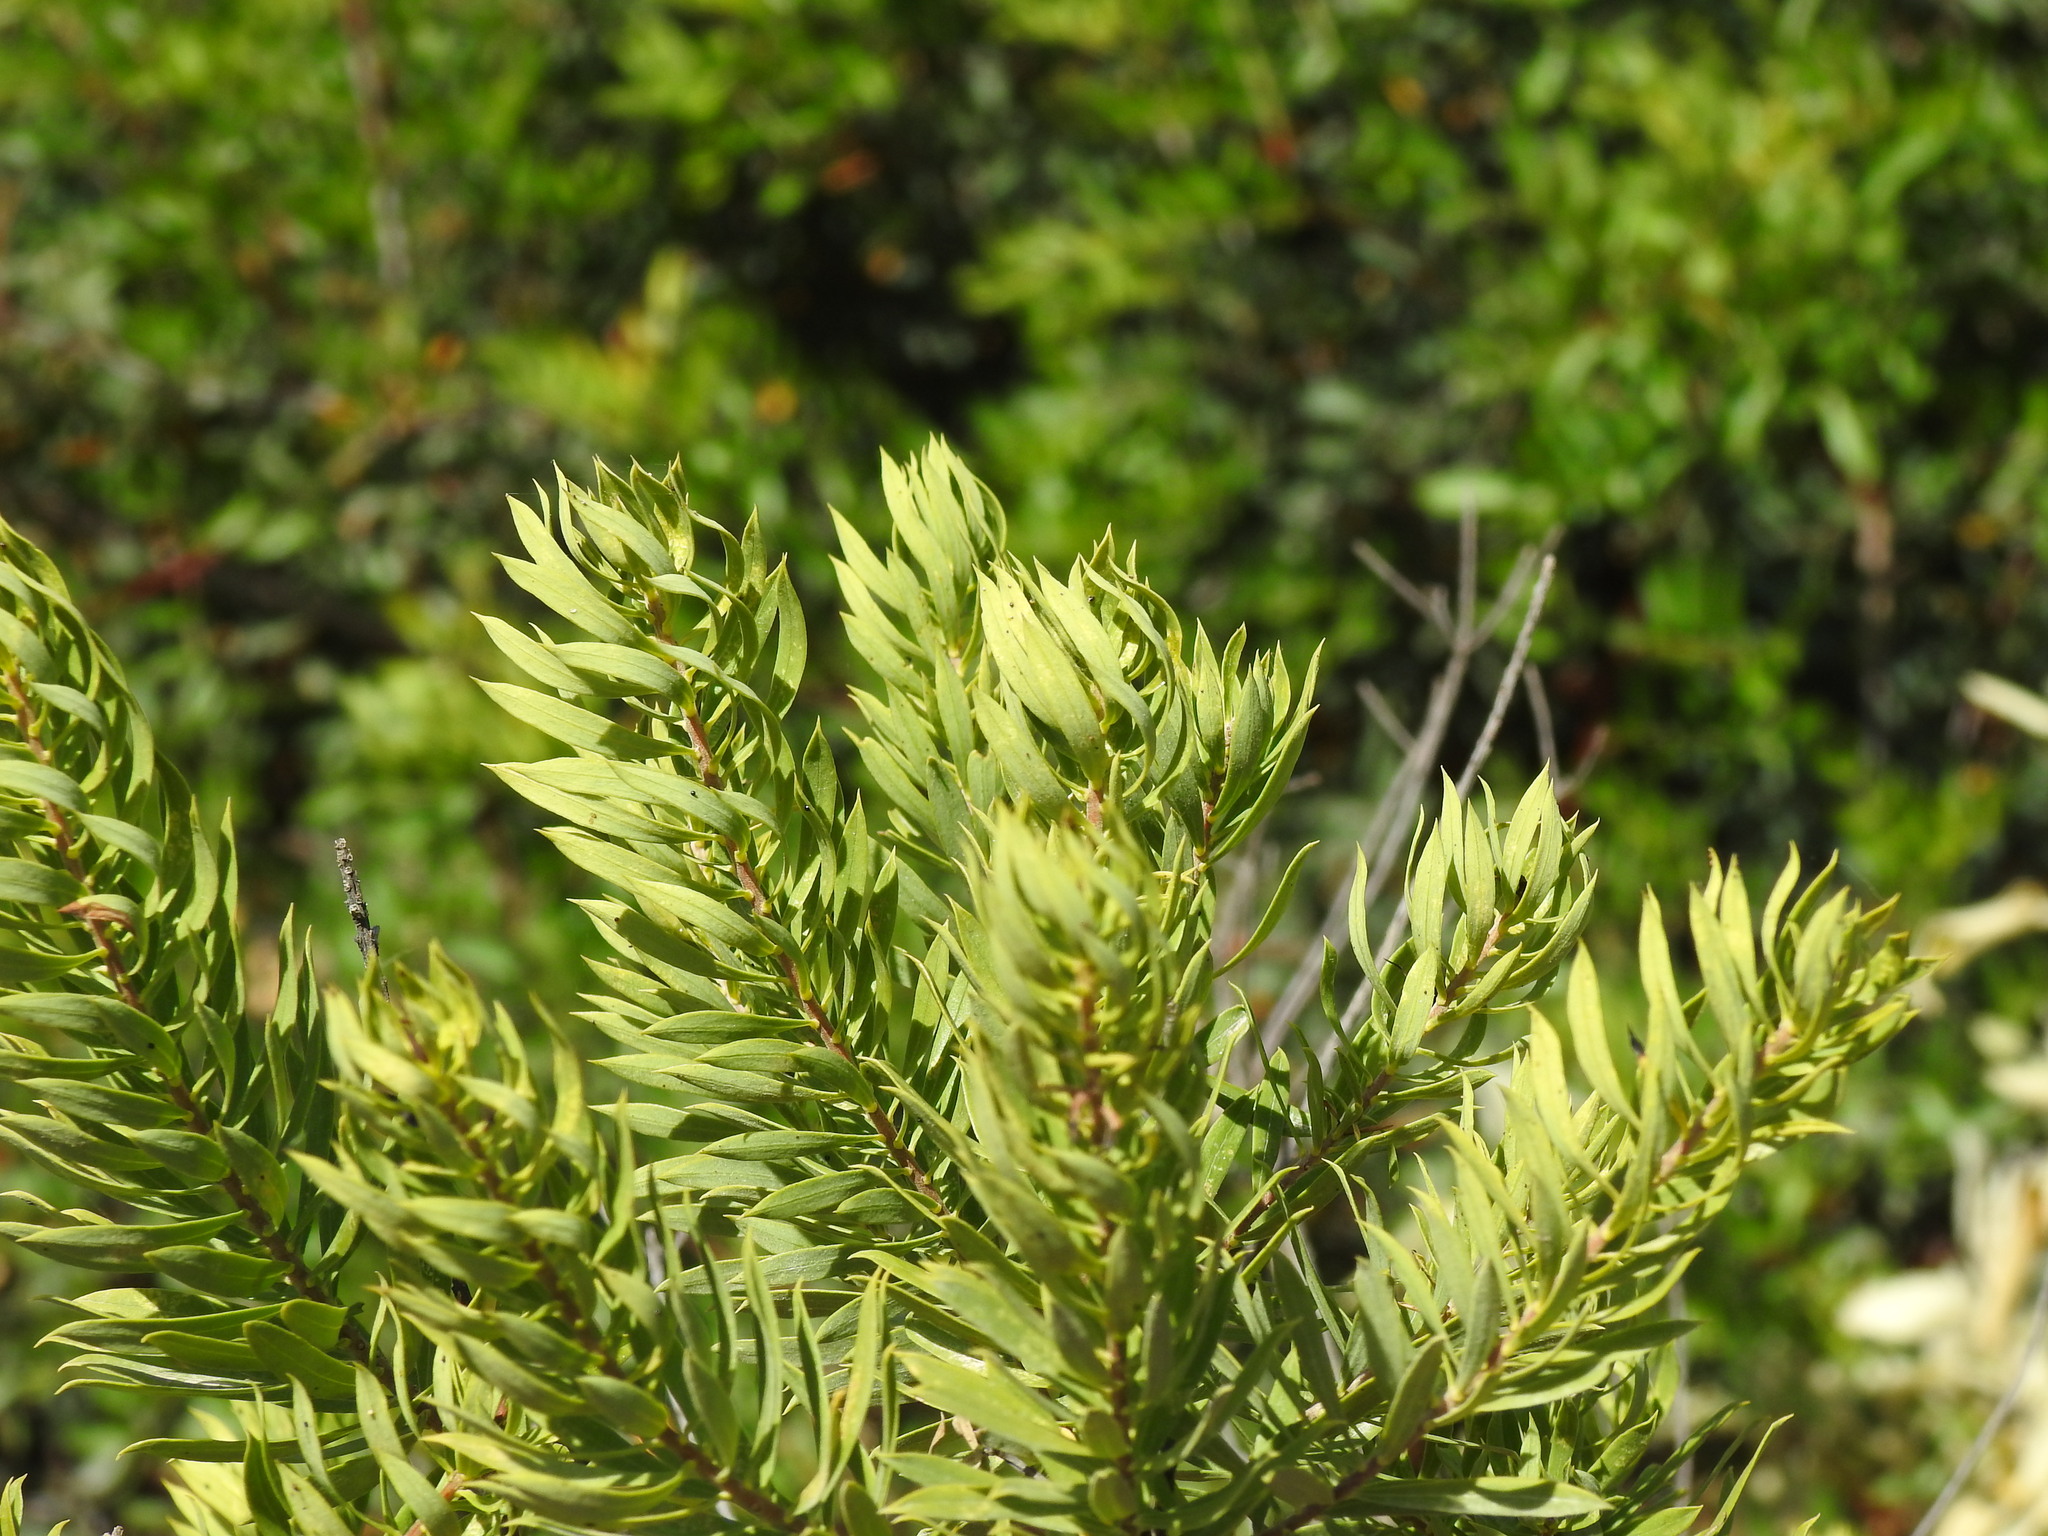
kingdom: Plantae
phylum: Tracheophyta
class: Magnoliopsida
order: Malvales
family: Thymelaeaceae
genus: Daphne
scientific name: Daphne gnidium
